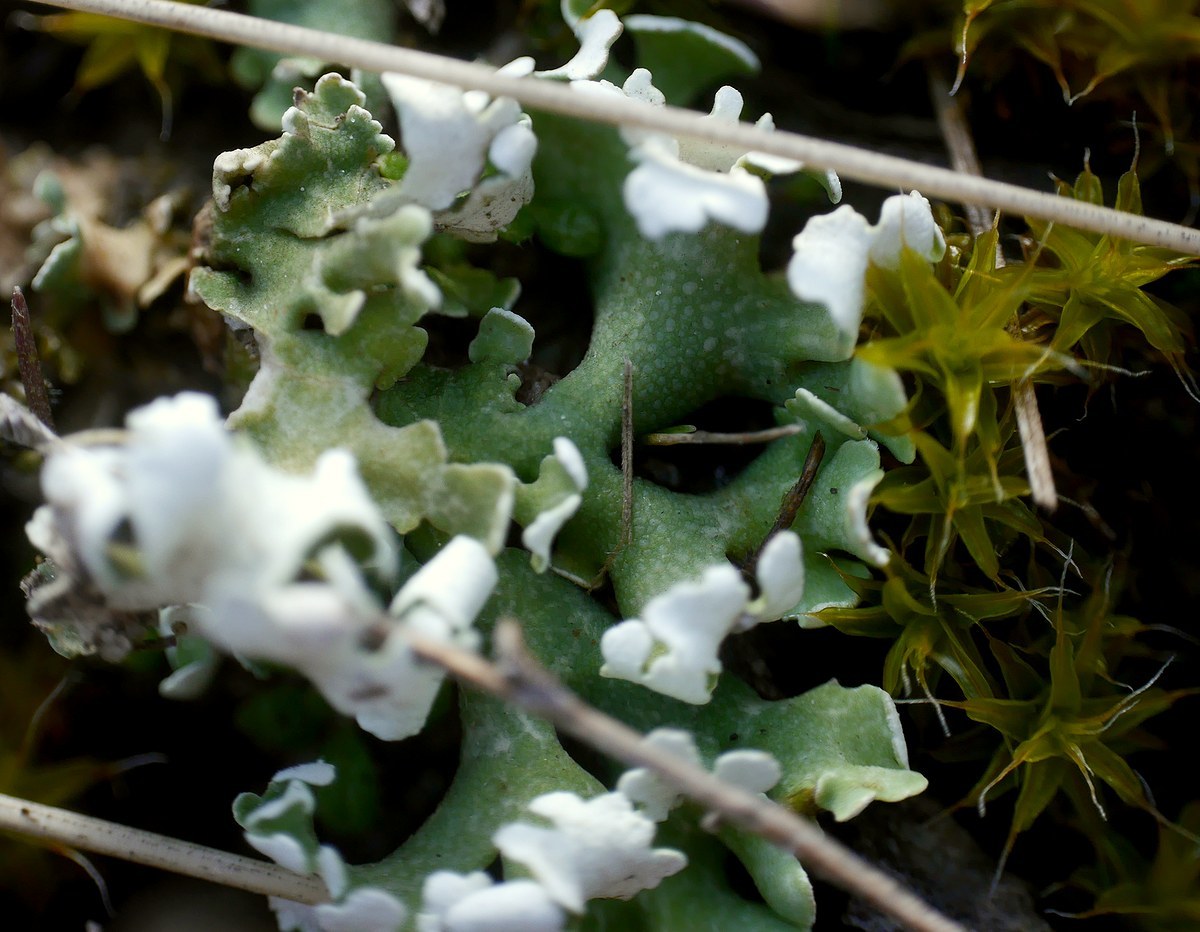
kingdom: Fungi
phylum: Ascomycota
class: Lecanoromycetes
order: Lecanorales
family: Cladoniaceae
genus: Cladonia
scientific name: Cladonia foliacea
